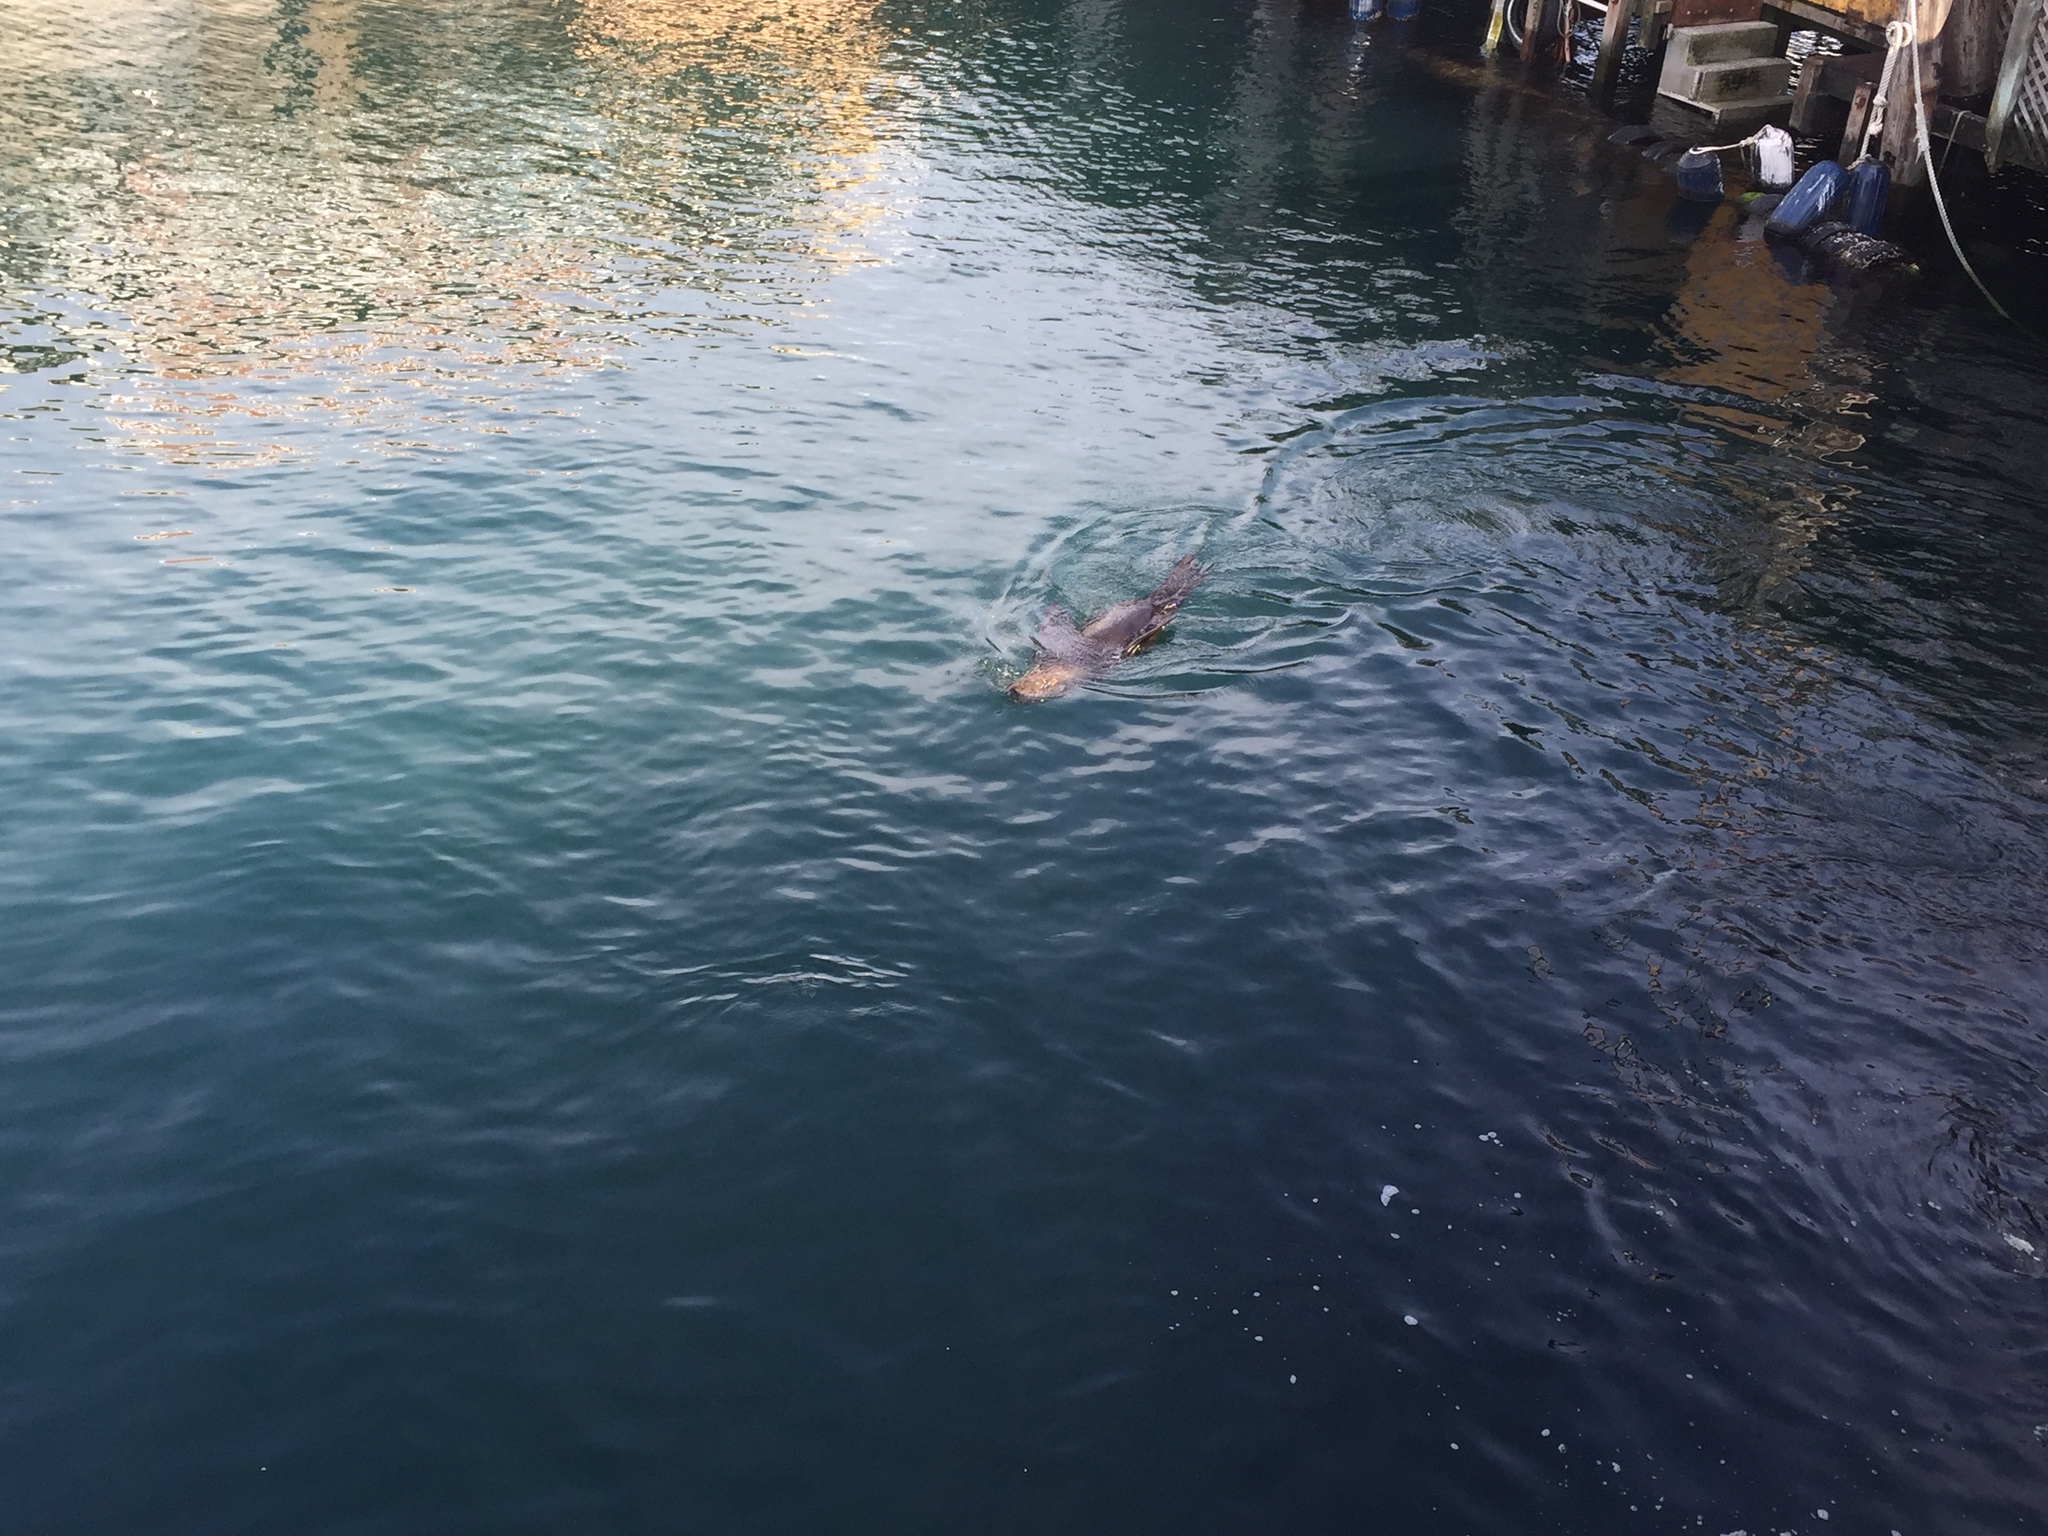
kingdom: Animalia
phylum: Chordata
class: Mammalia
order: Carnivora
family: Otariidae
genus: Zalophus
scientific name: Zalophus californianus
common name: California sea lion
